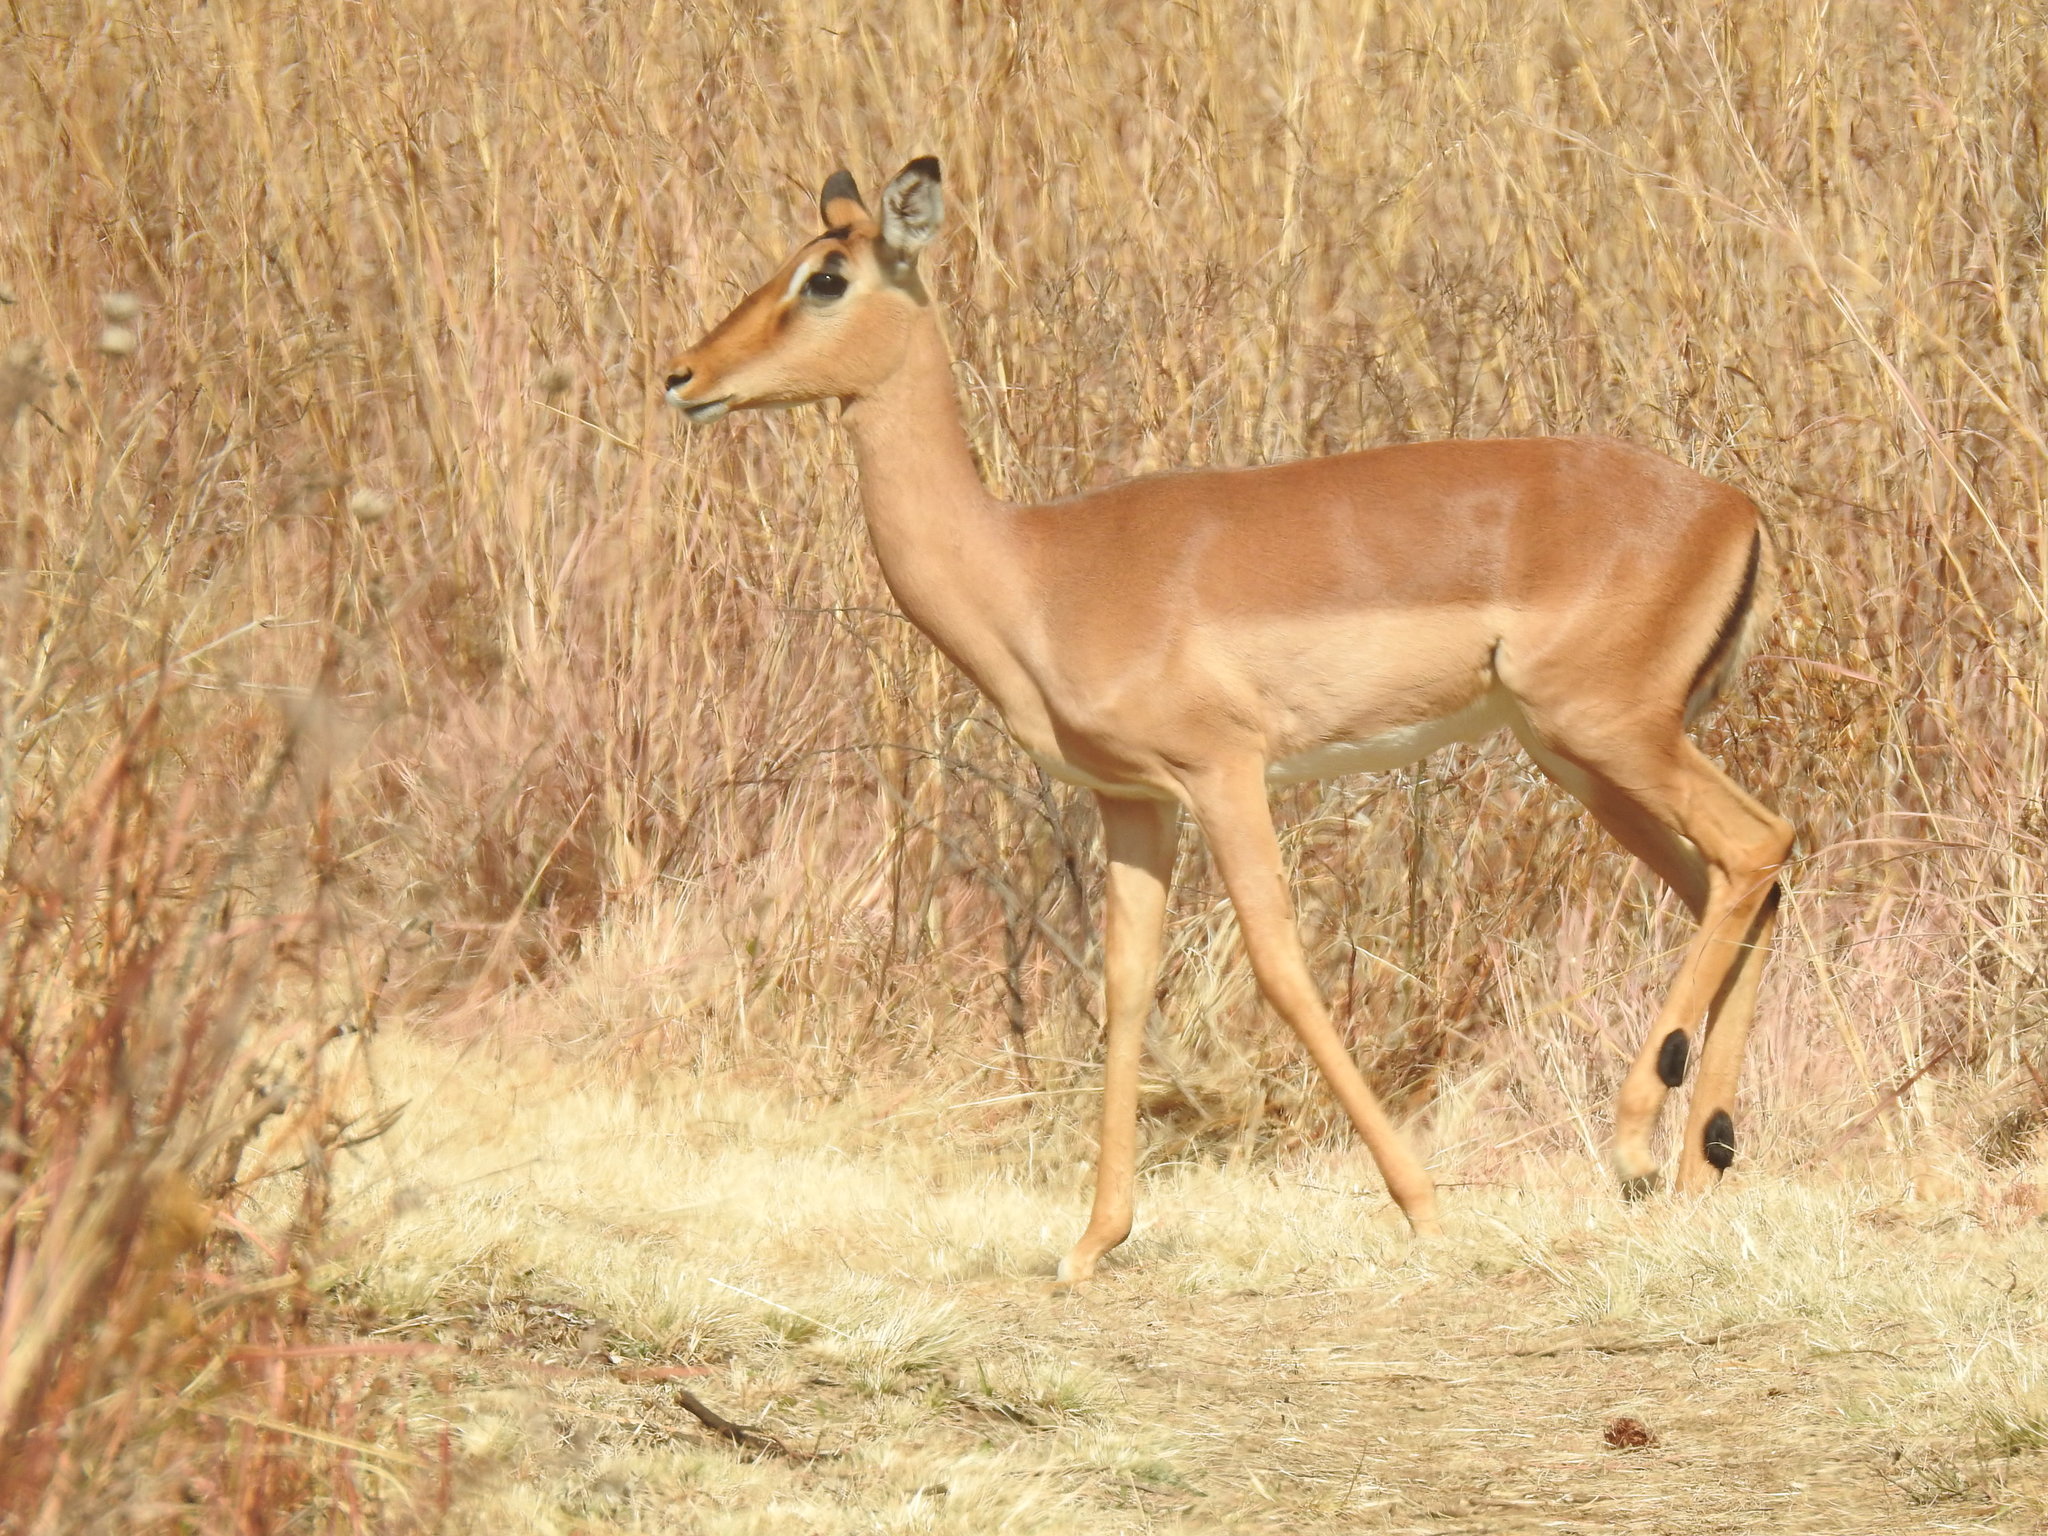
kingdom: Animalia
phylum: Chordata
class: Mammalia
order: Artiodactyla
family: Bovidae
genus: Aepyceros
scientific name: Aepyceros melampus
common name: Impala
